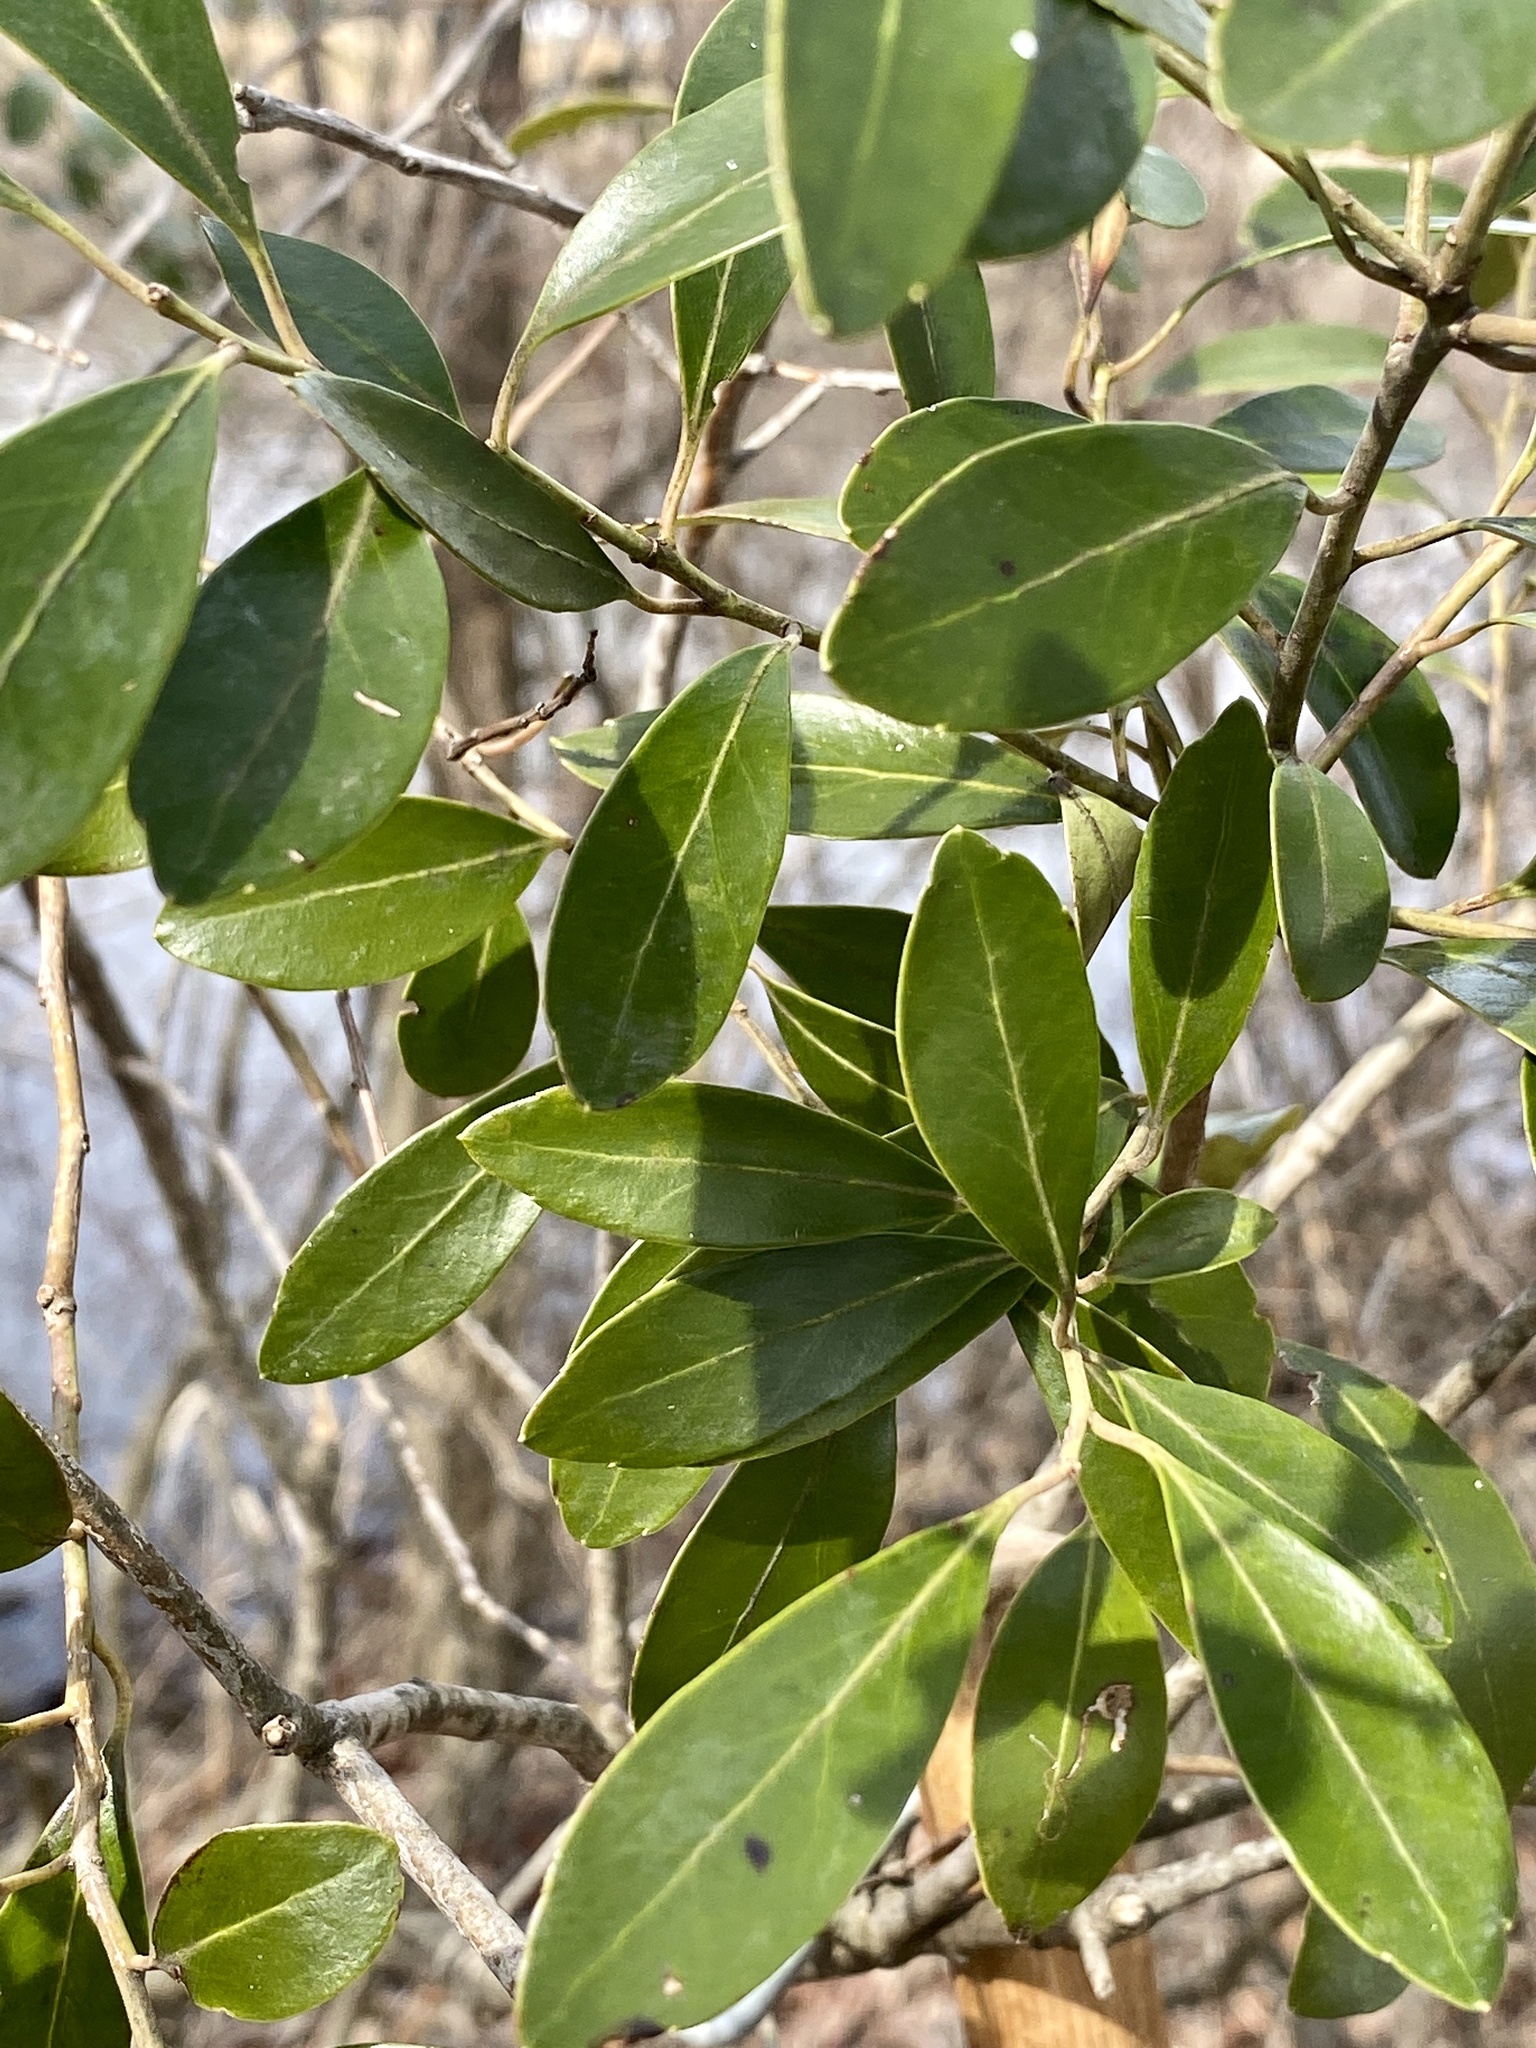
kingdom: Plantae
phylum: Tracheophyta
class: Magnoliopsida
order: Aquifoliales
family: Aquifoliaceae
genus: Ilex
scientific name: Ilex glabra
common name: Bitter gallberry
